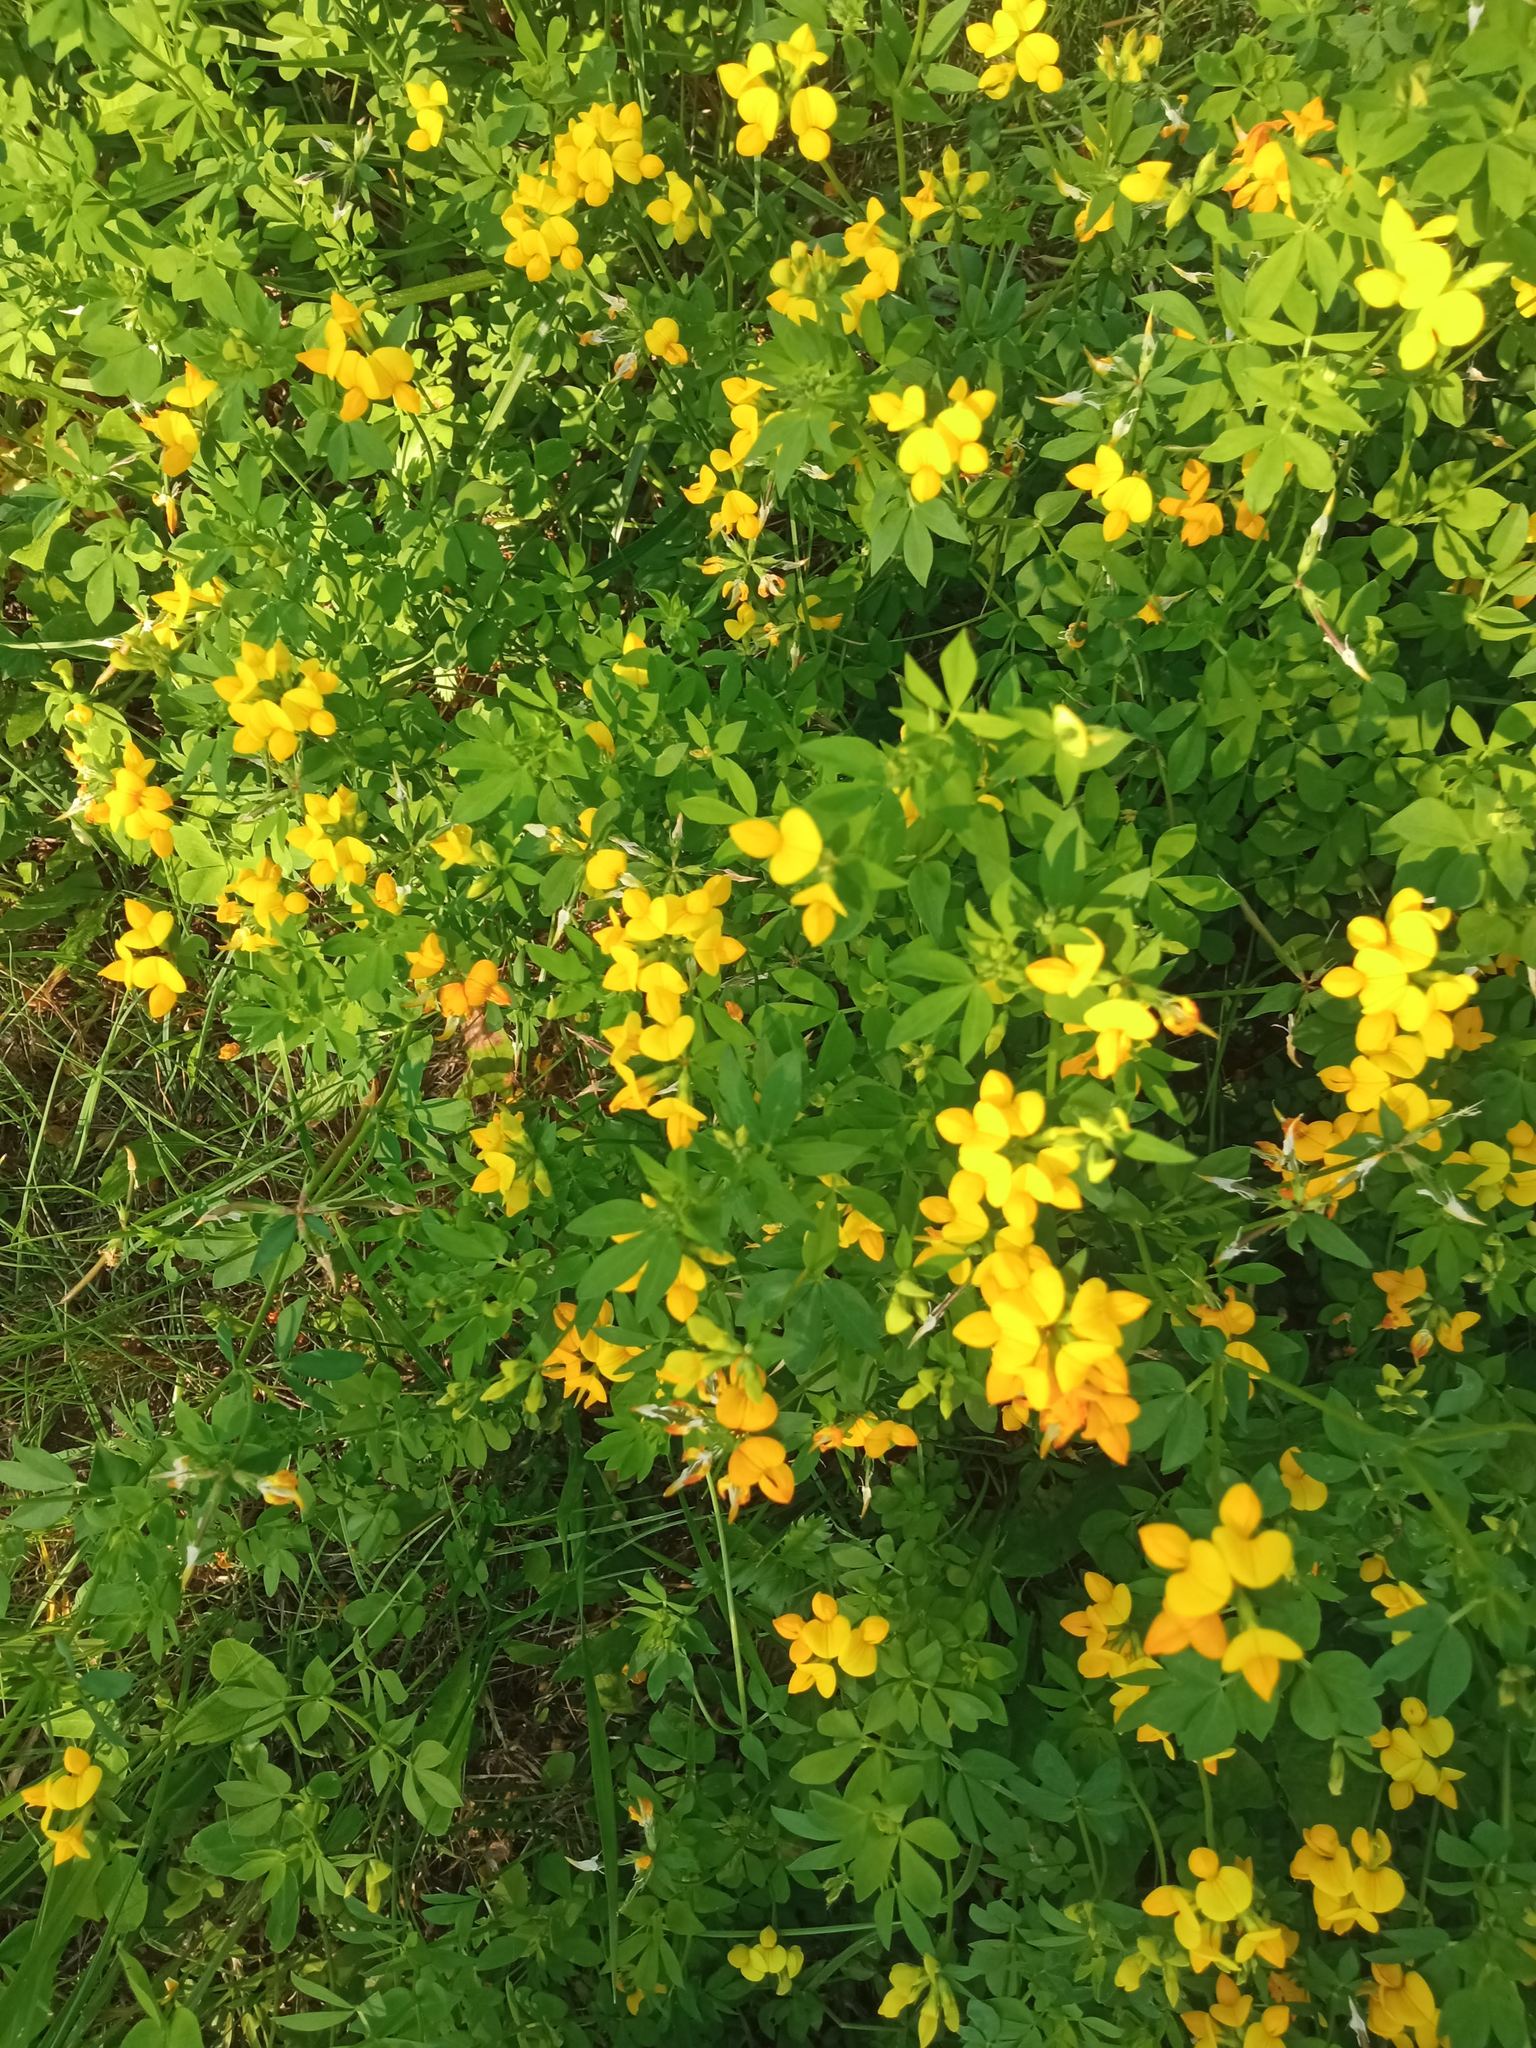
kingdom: Plantae
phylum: Tracheophyta
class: Magnoliopsida
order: Fabales
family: Fabaceae
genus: Lotus
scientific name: Lotus corniculatus
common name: Common bird's-foot-trefoil
